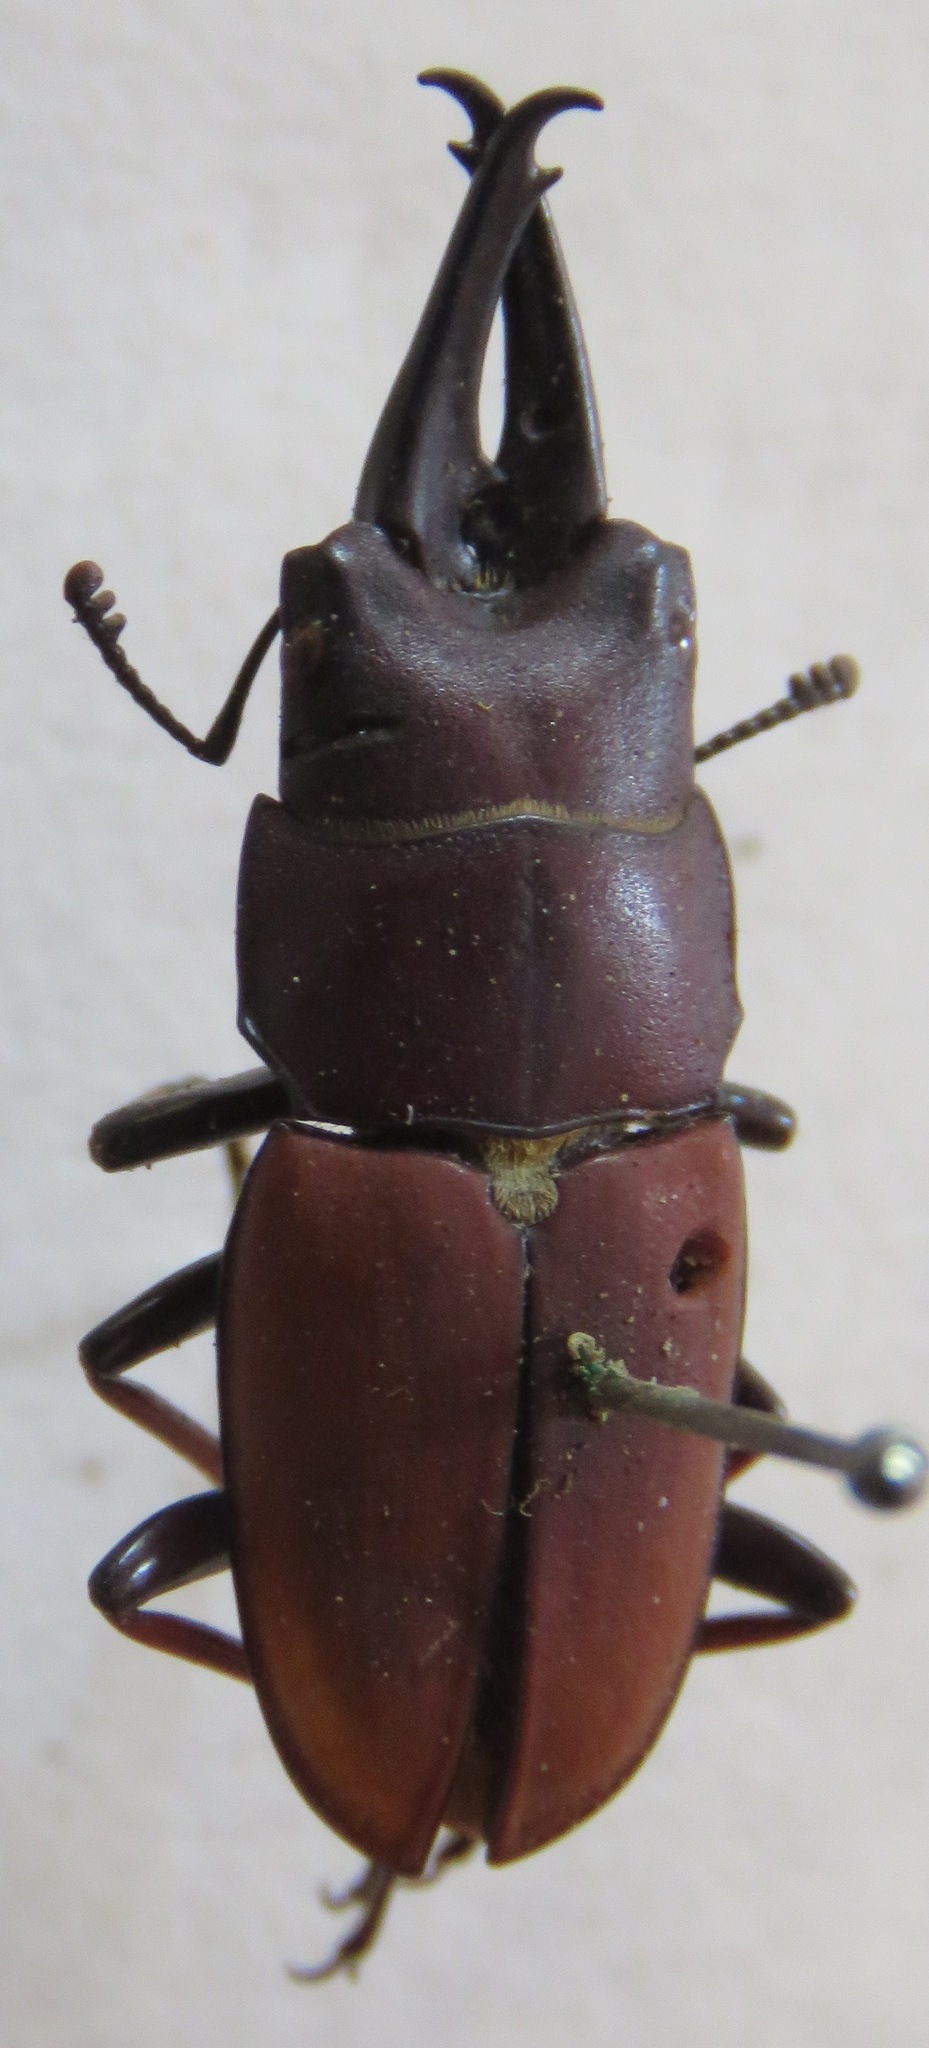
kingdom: Animalia
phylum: Arthropoda
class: Insecta
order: Coleoptera
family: Lucanidae
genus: Leptinopterus
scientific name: Leptinopterus tibialis
